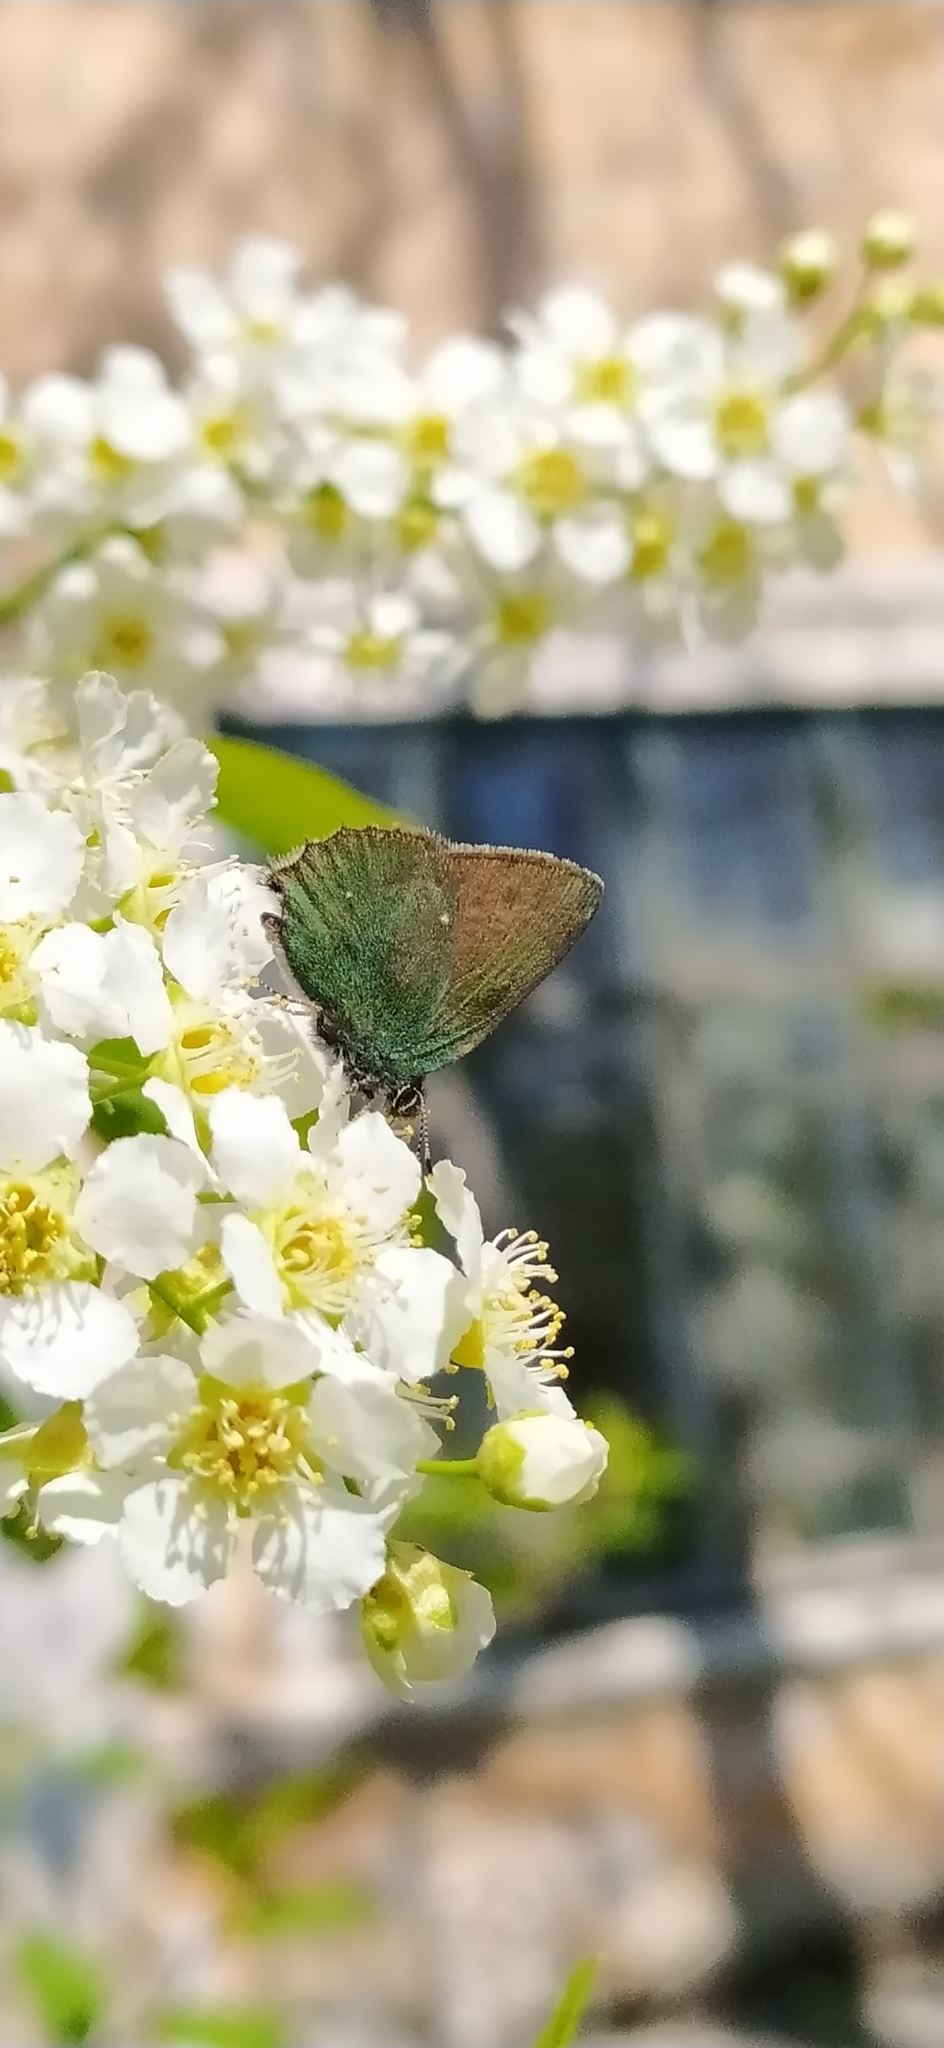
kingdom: Animalia
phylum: Arthropoda
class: Insecta
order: Lepidoptera
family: Lycaenidae
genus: Callophrys
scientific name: Callophrys rubi
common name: Green hairstreak
